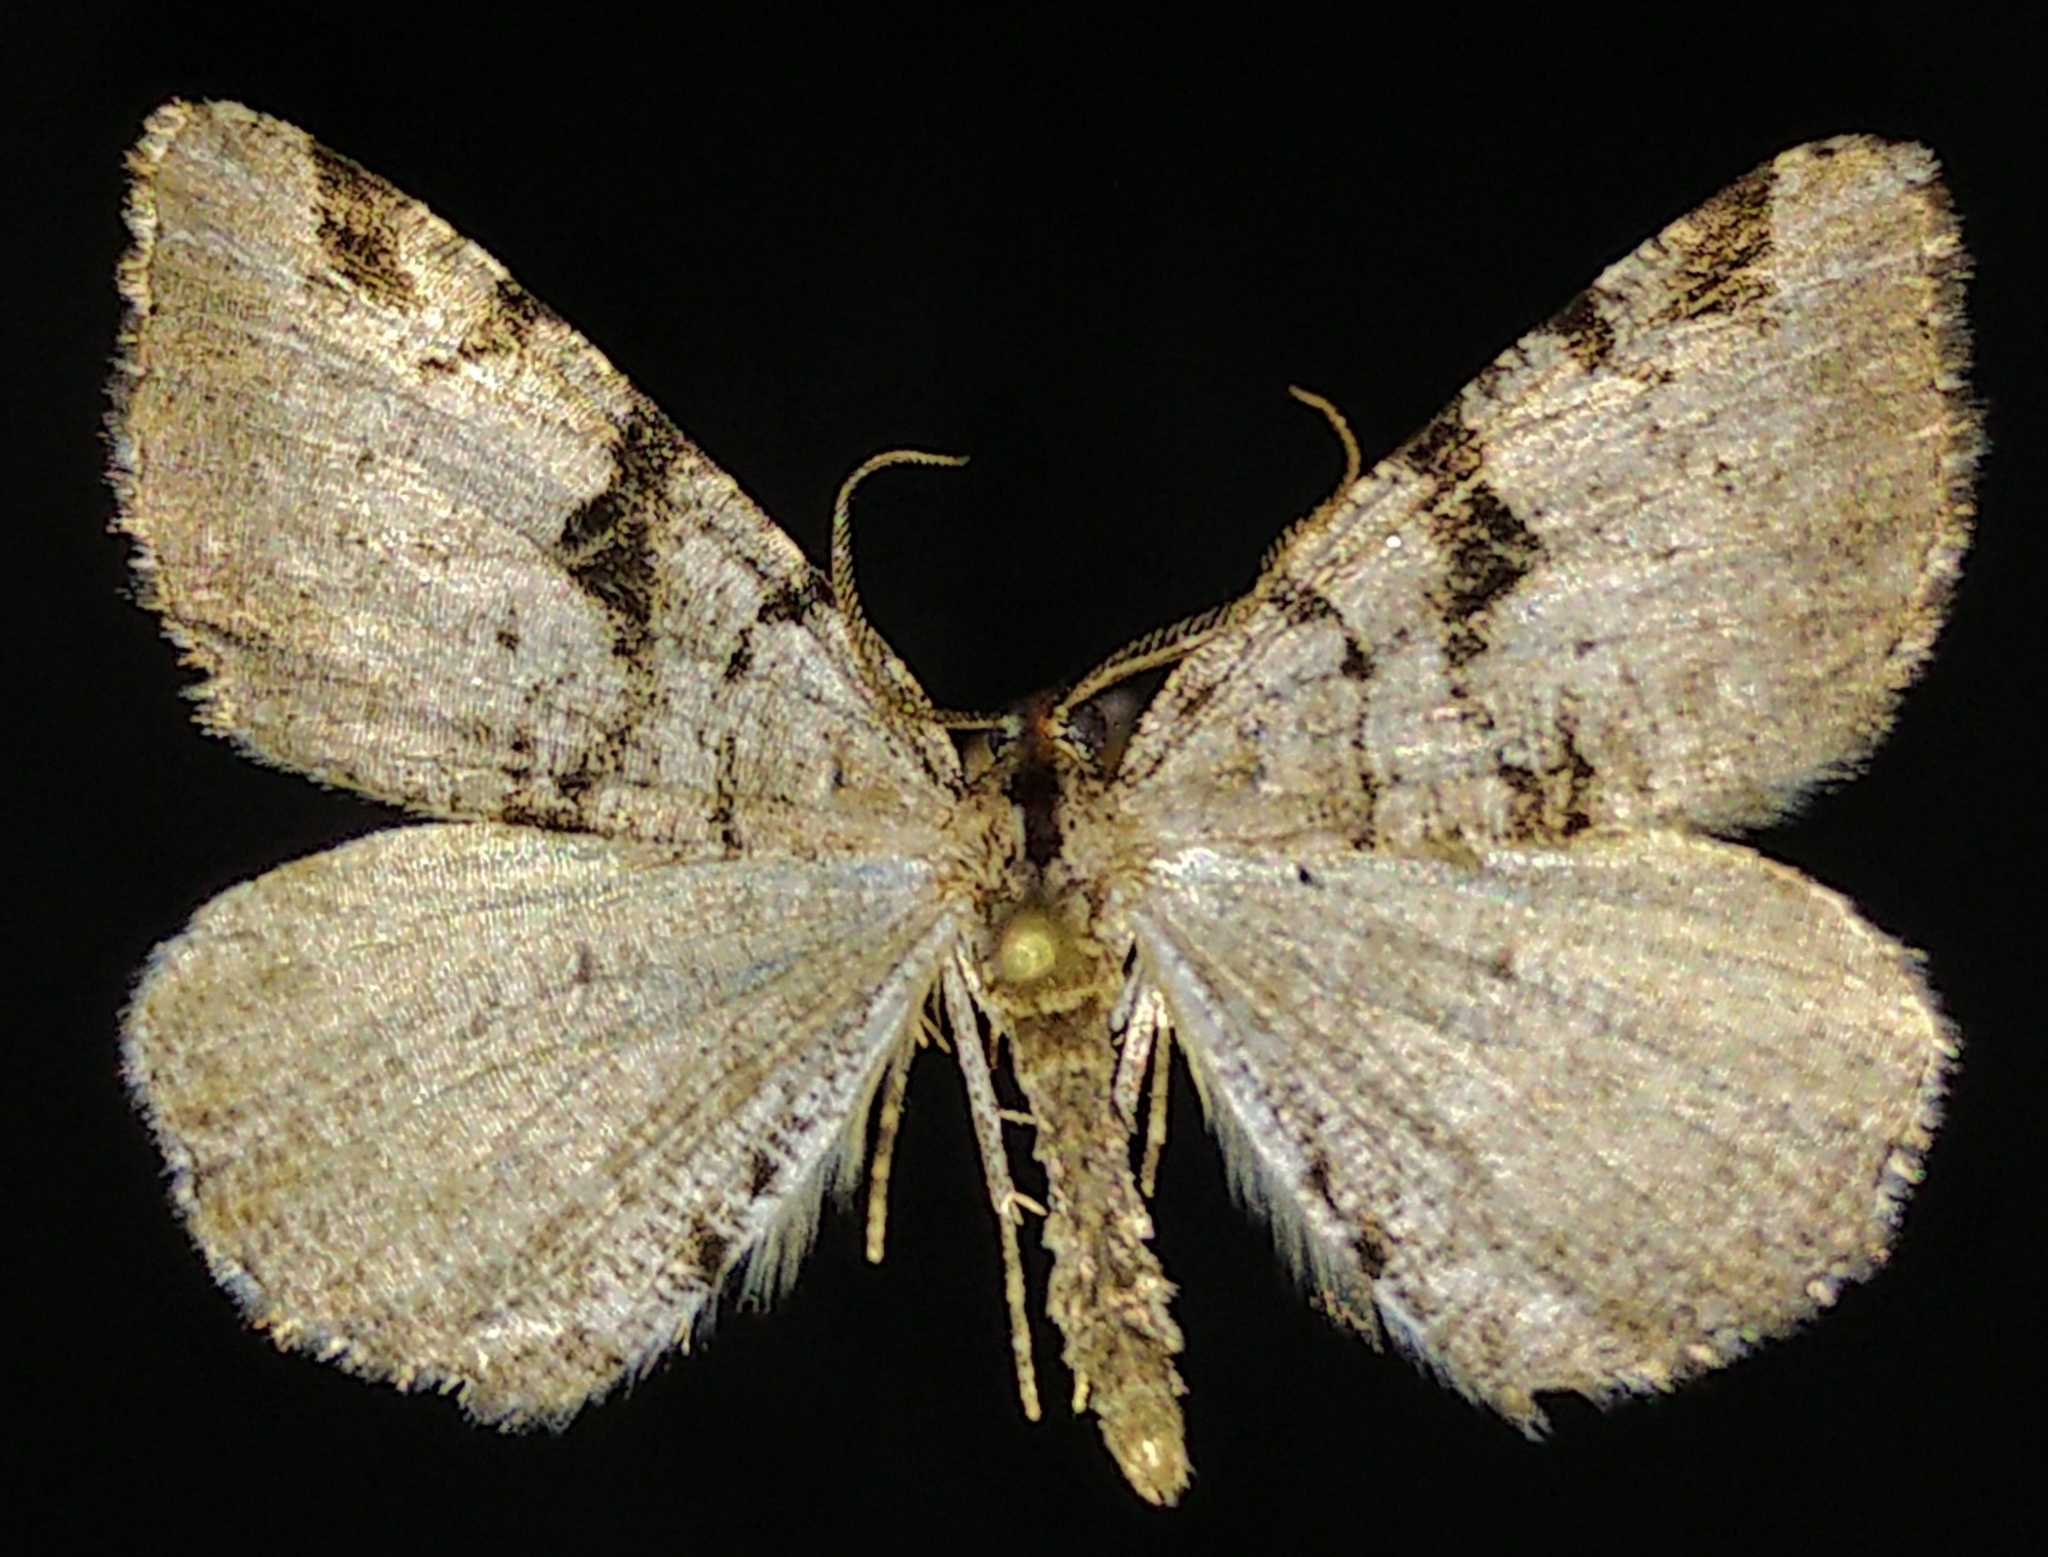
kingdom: Animalia
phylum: Arthropoda
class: Insecta
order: Lepidoptera
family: Geometridae
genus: Macaria
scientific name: Macaria bitactata
